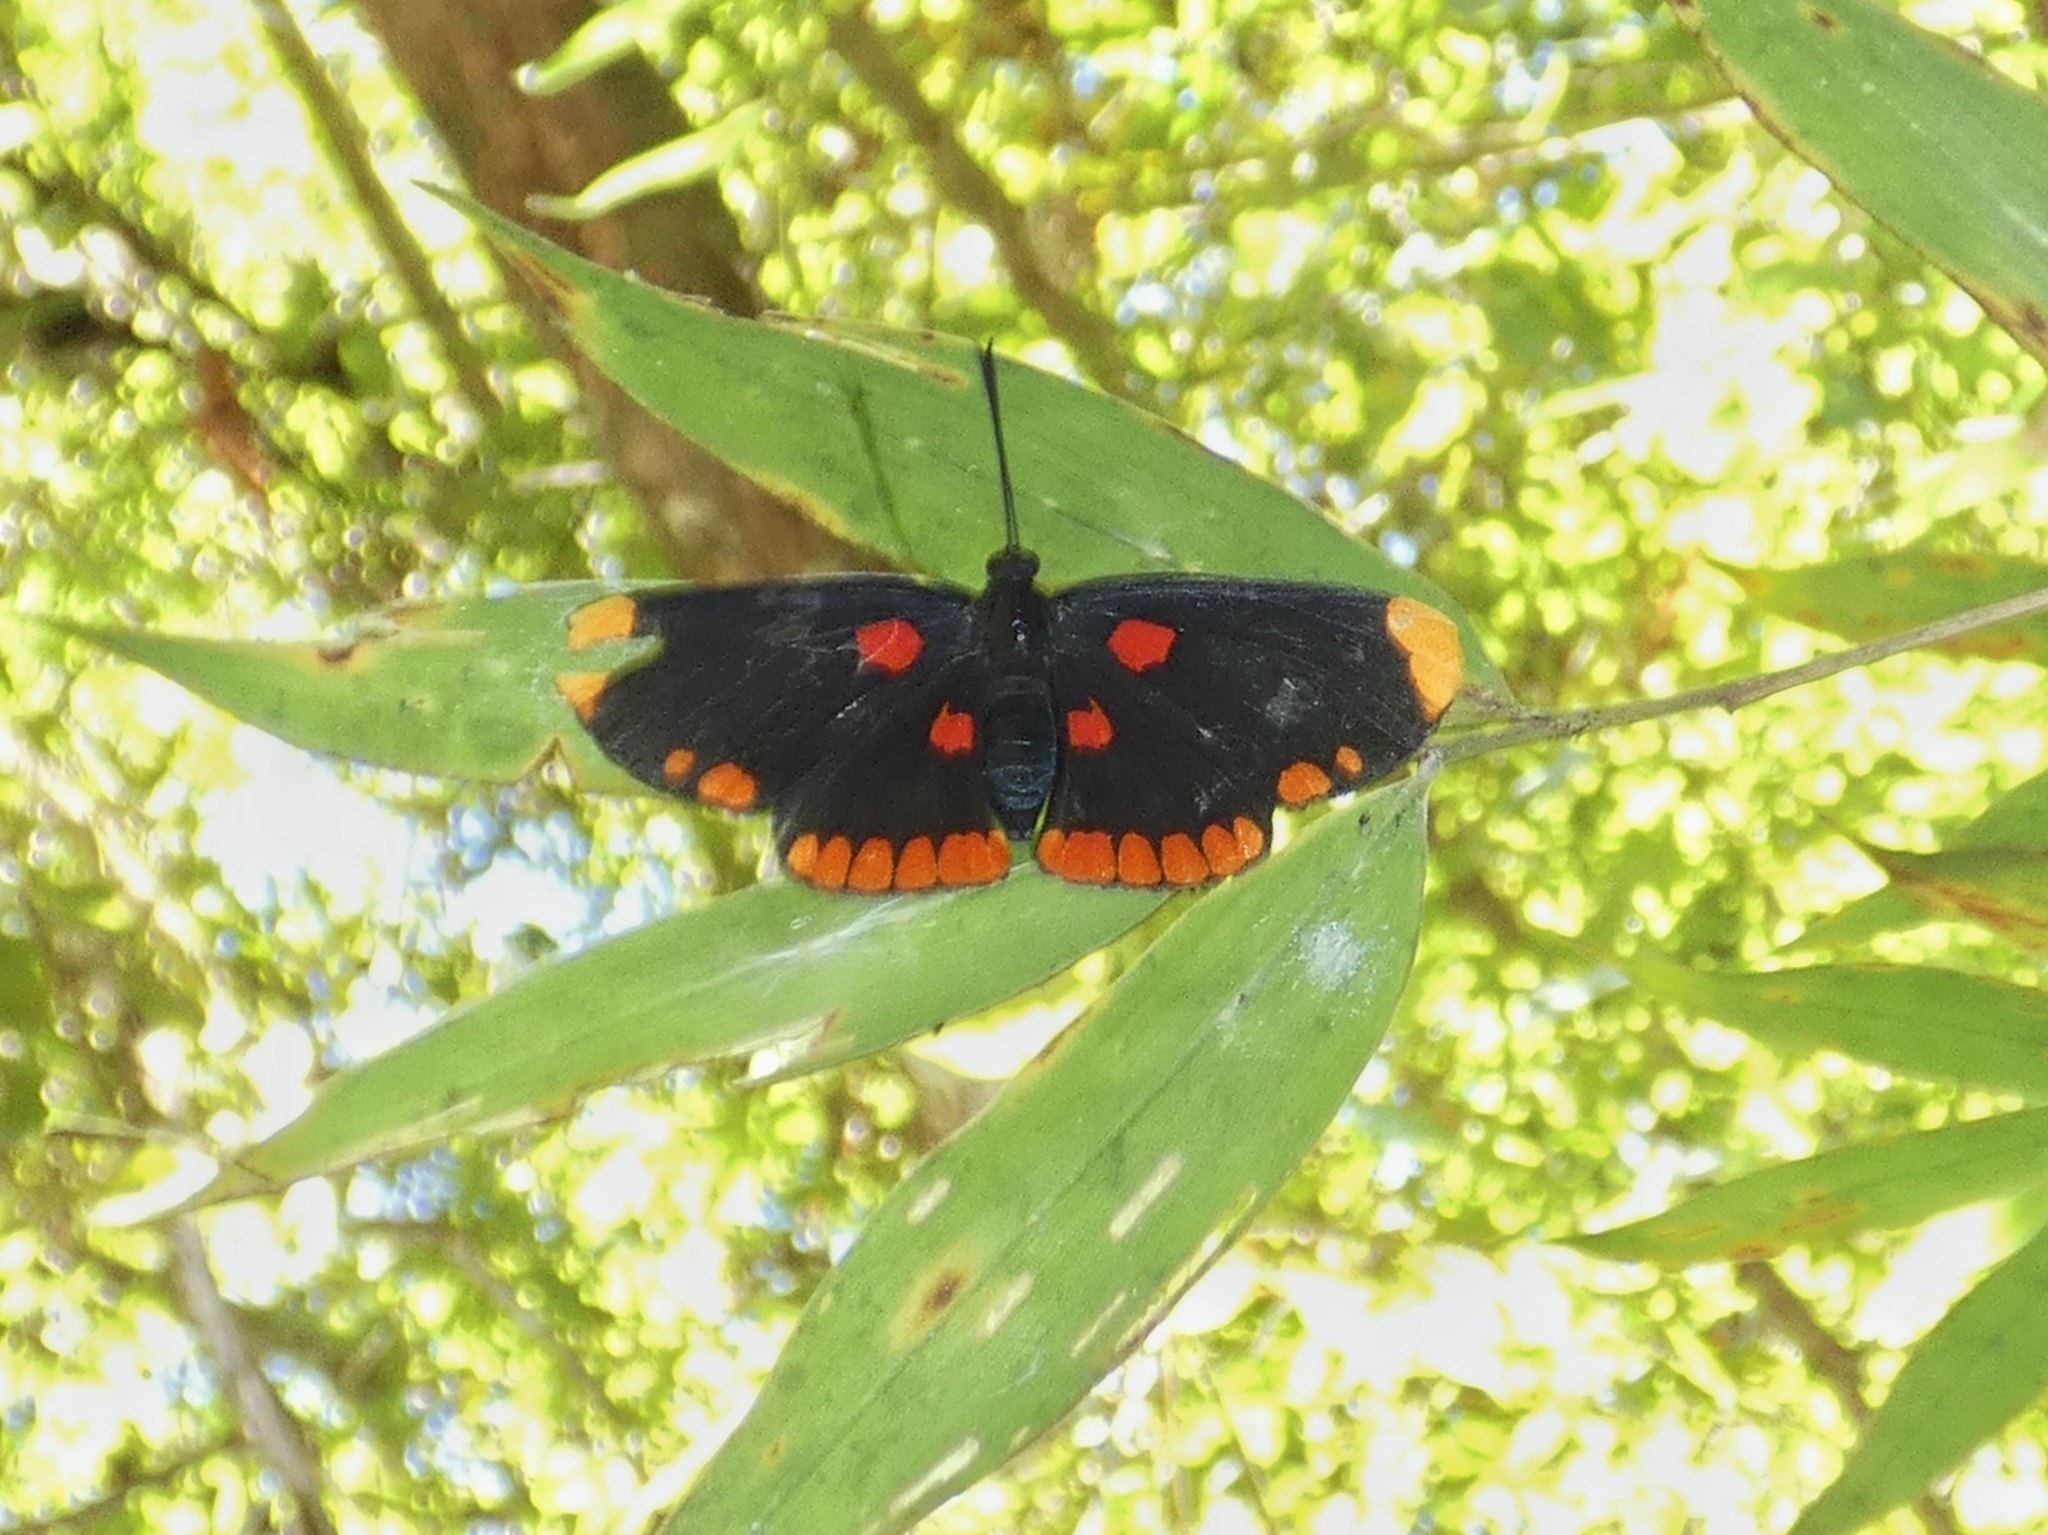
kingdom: Animalia
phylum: Arthropoda
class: Insecta
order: Lepidoptera
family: Lycaenidae
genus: Melanis
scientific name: Melanis pixe
